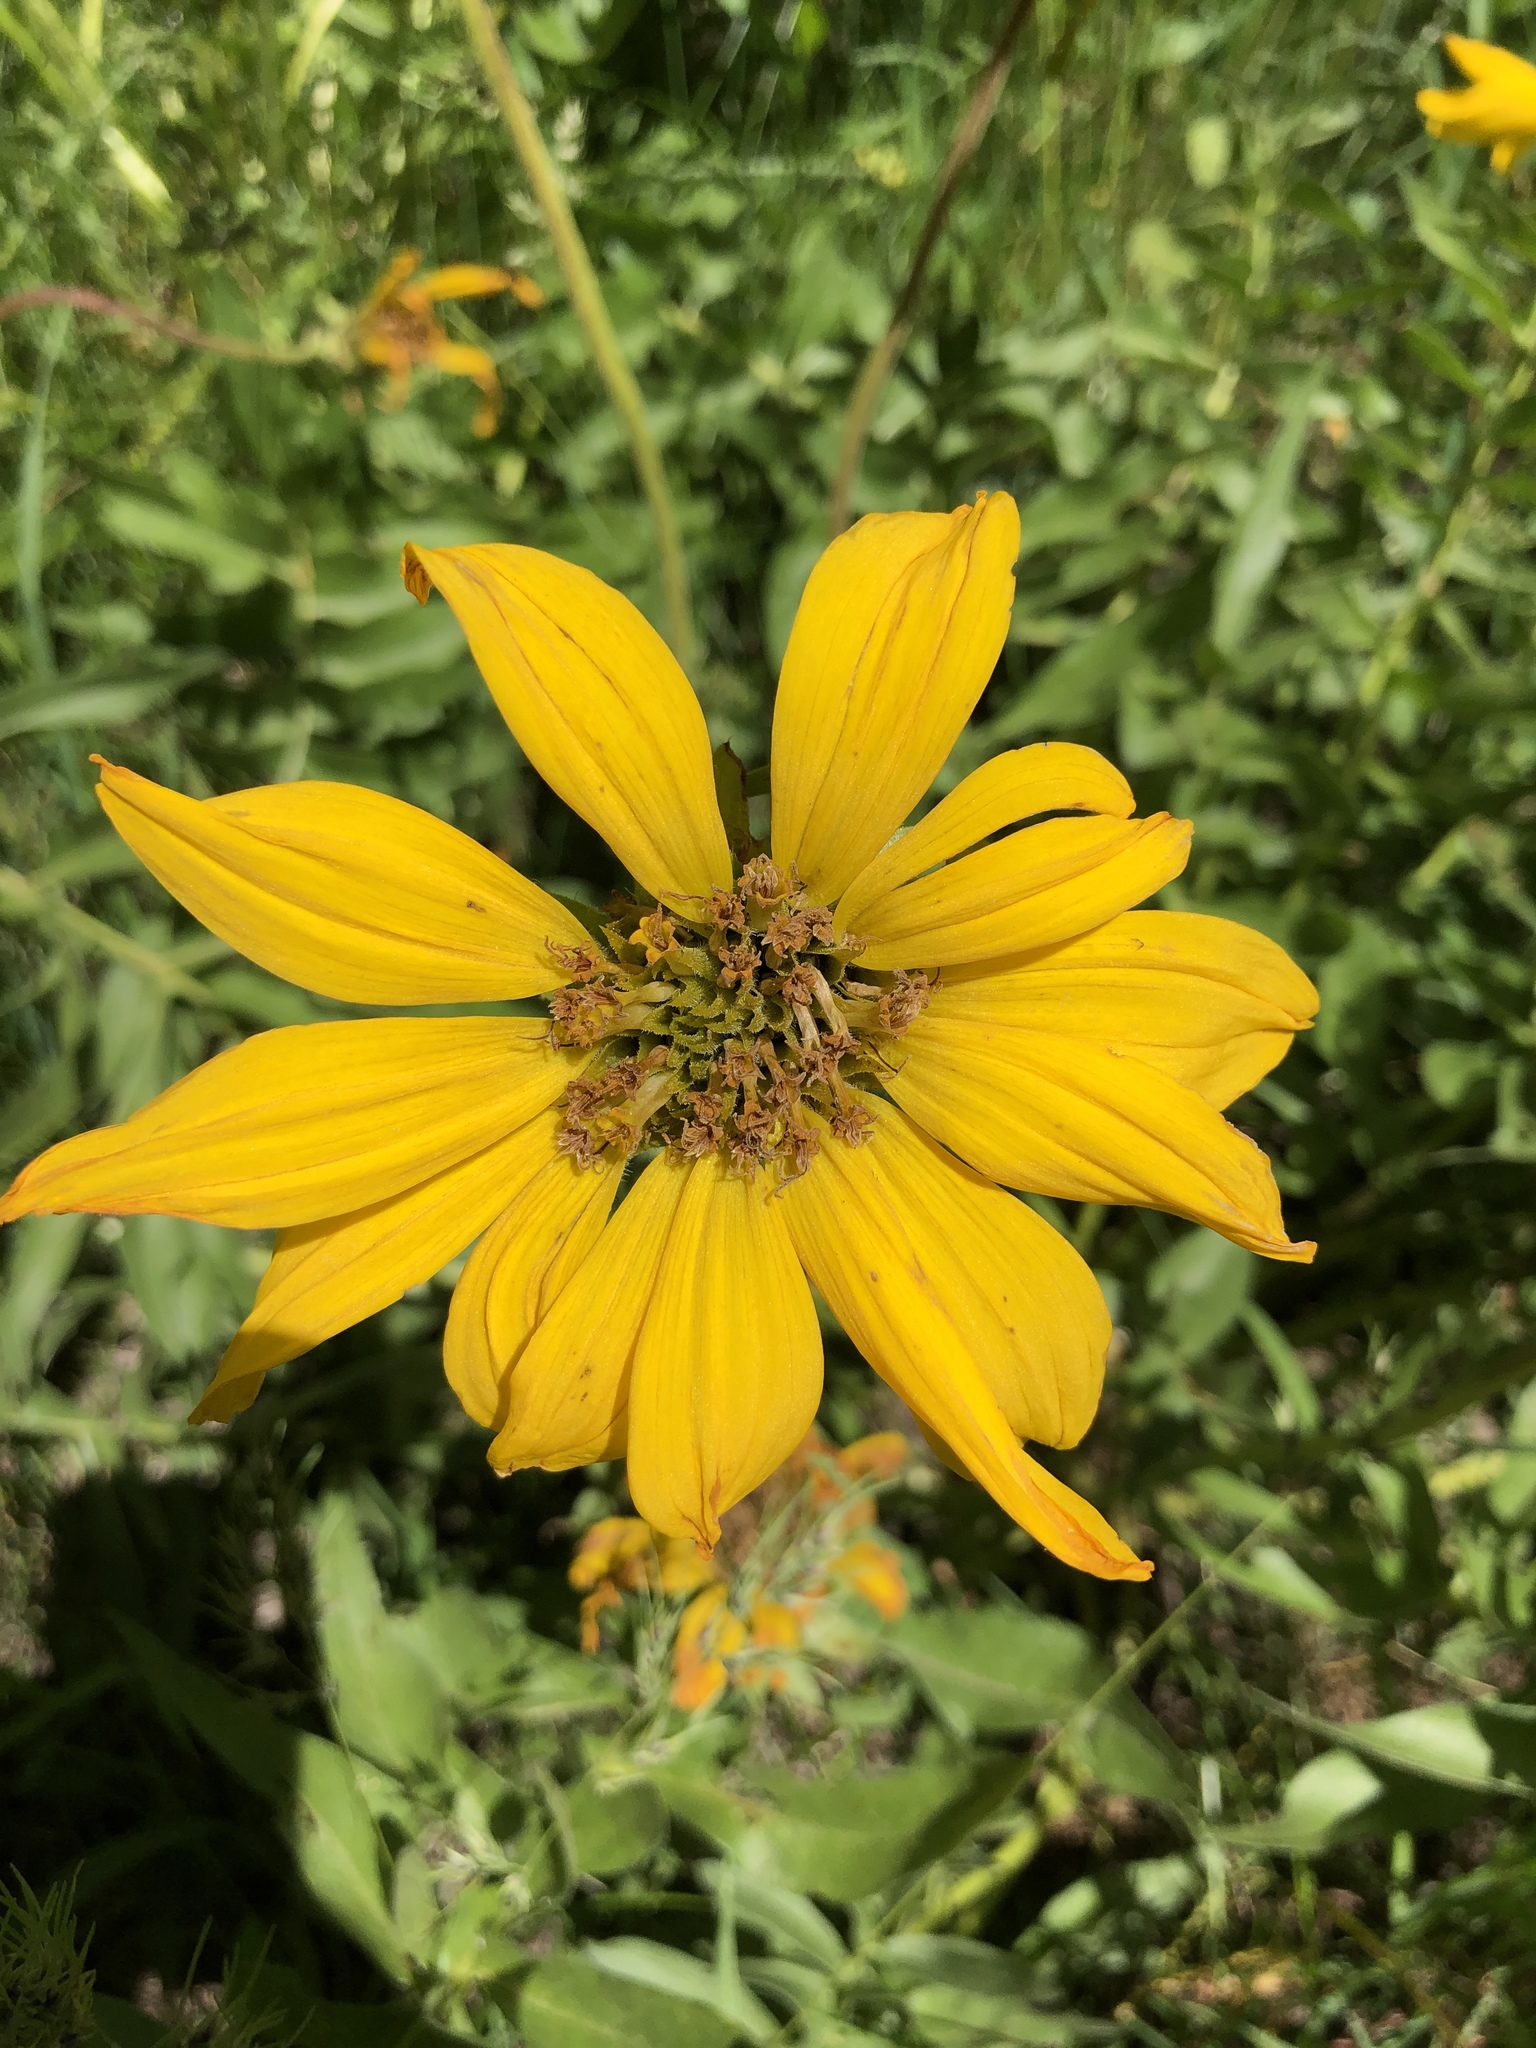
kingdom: Plantae
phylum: Tracheophyta
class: Magnoliopsida
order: Asterales
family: Asteraceae
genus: Balsamorhiza
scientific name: Balsamorhiza macrophylla
